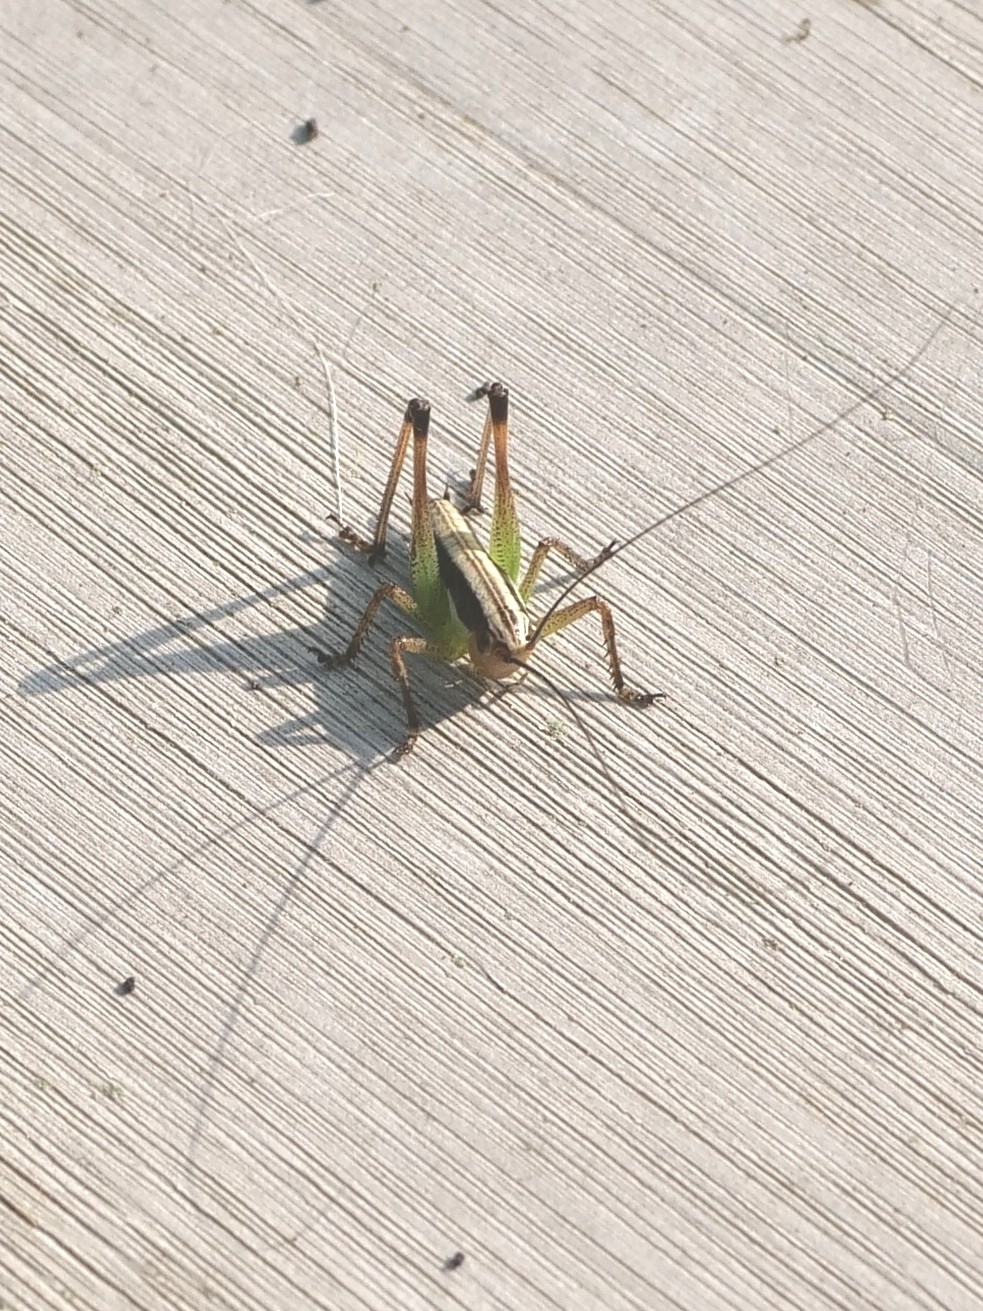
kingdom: Animalia
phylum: Arthropoda
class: Insecta
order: Orthoptera
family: Tettigoniidae
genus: Pachytrachis
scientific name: Pachytrachis gracilis
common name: Graceful bush-cricket
